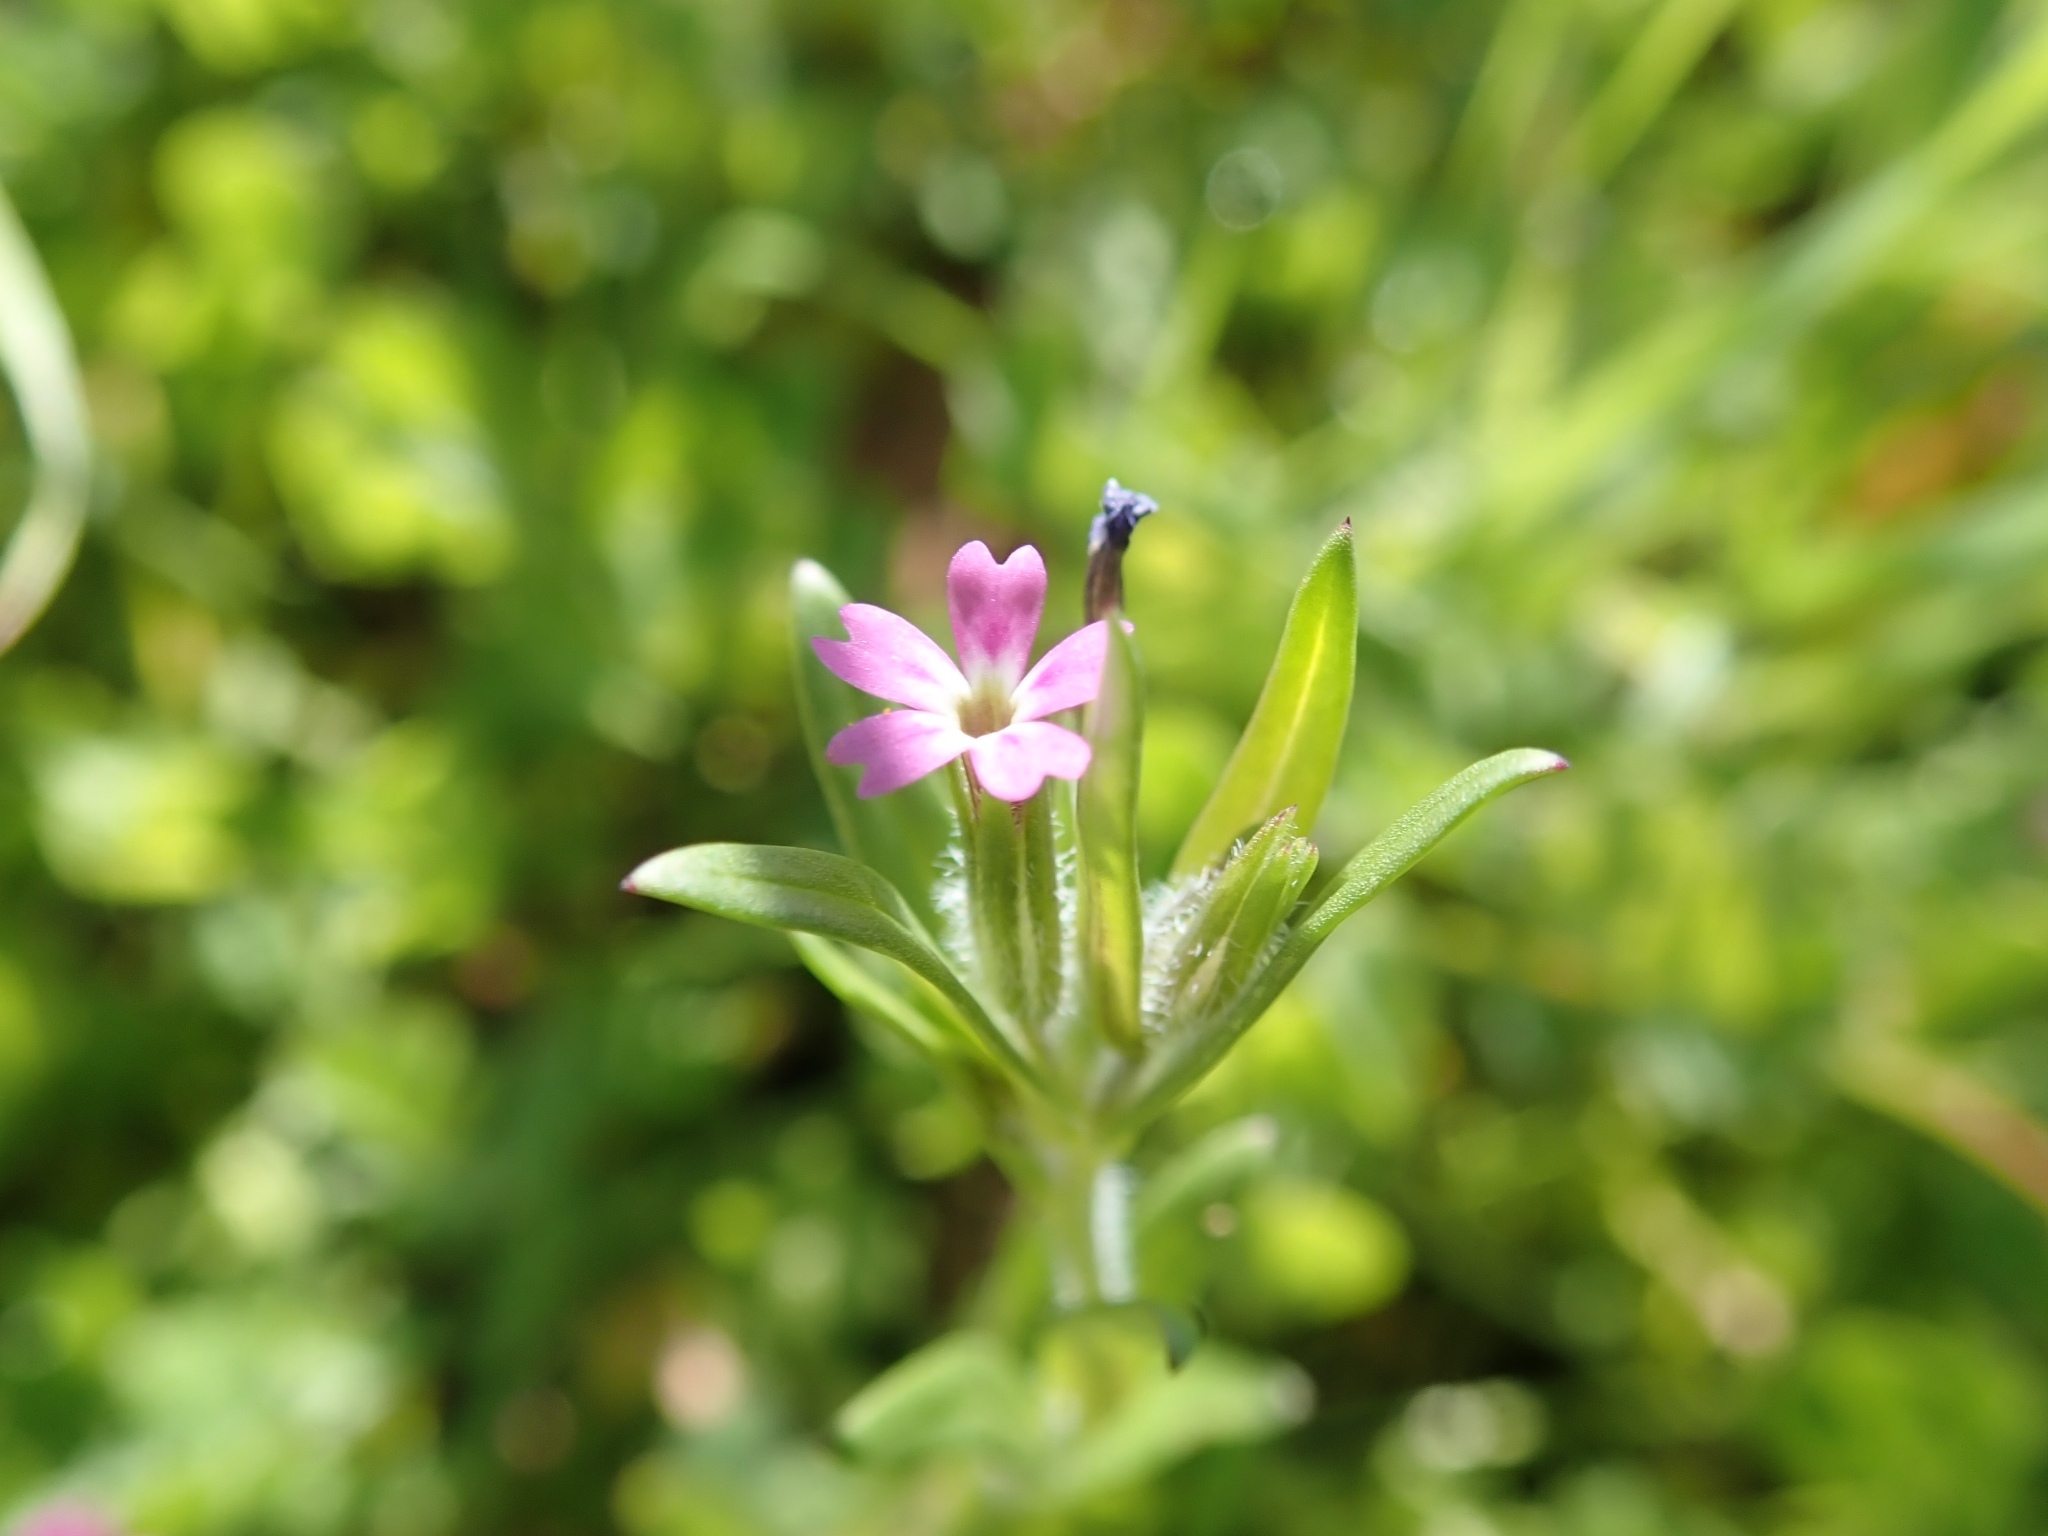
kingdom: Plantae
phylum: Tracheophyta
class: Magnoliopsida
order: Ericales
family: Polemoniaceae
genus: Phlox
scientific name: Phlox gracilis
